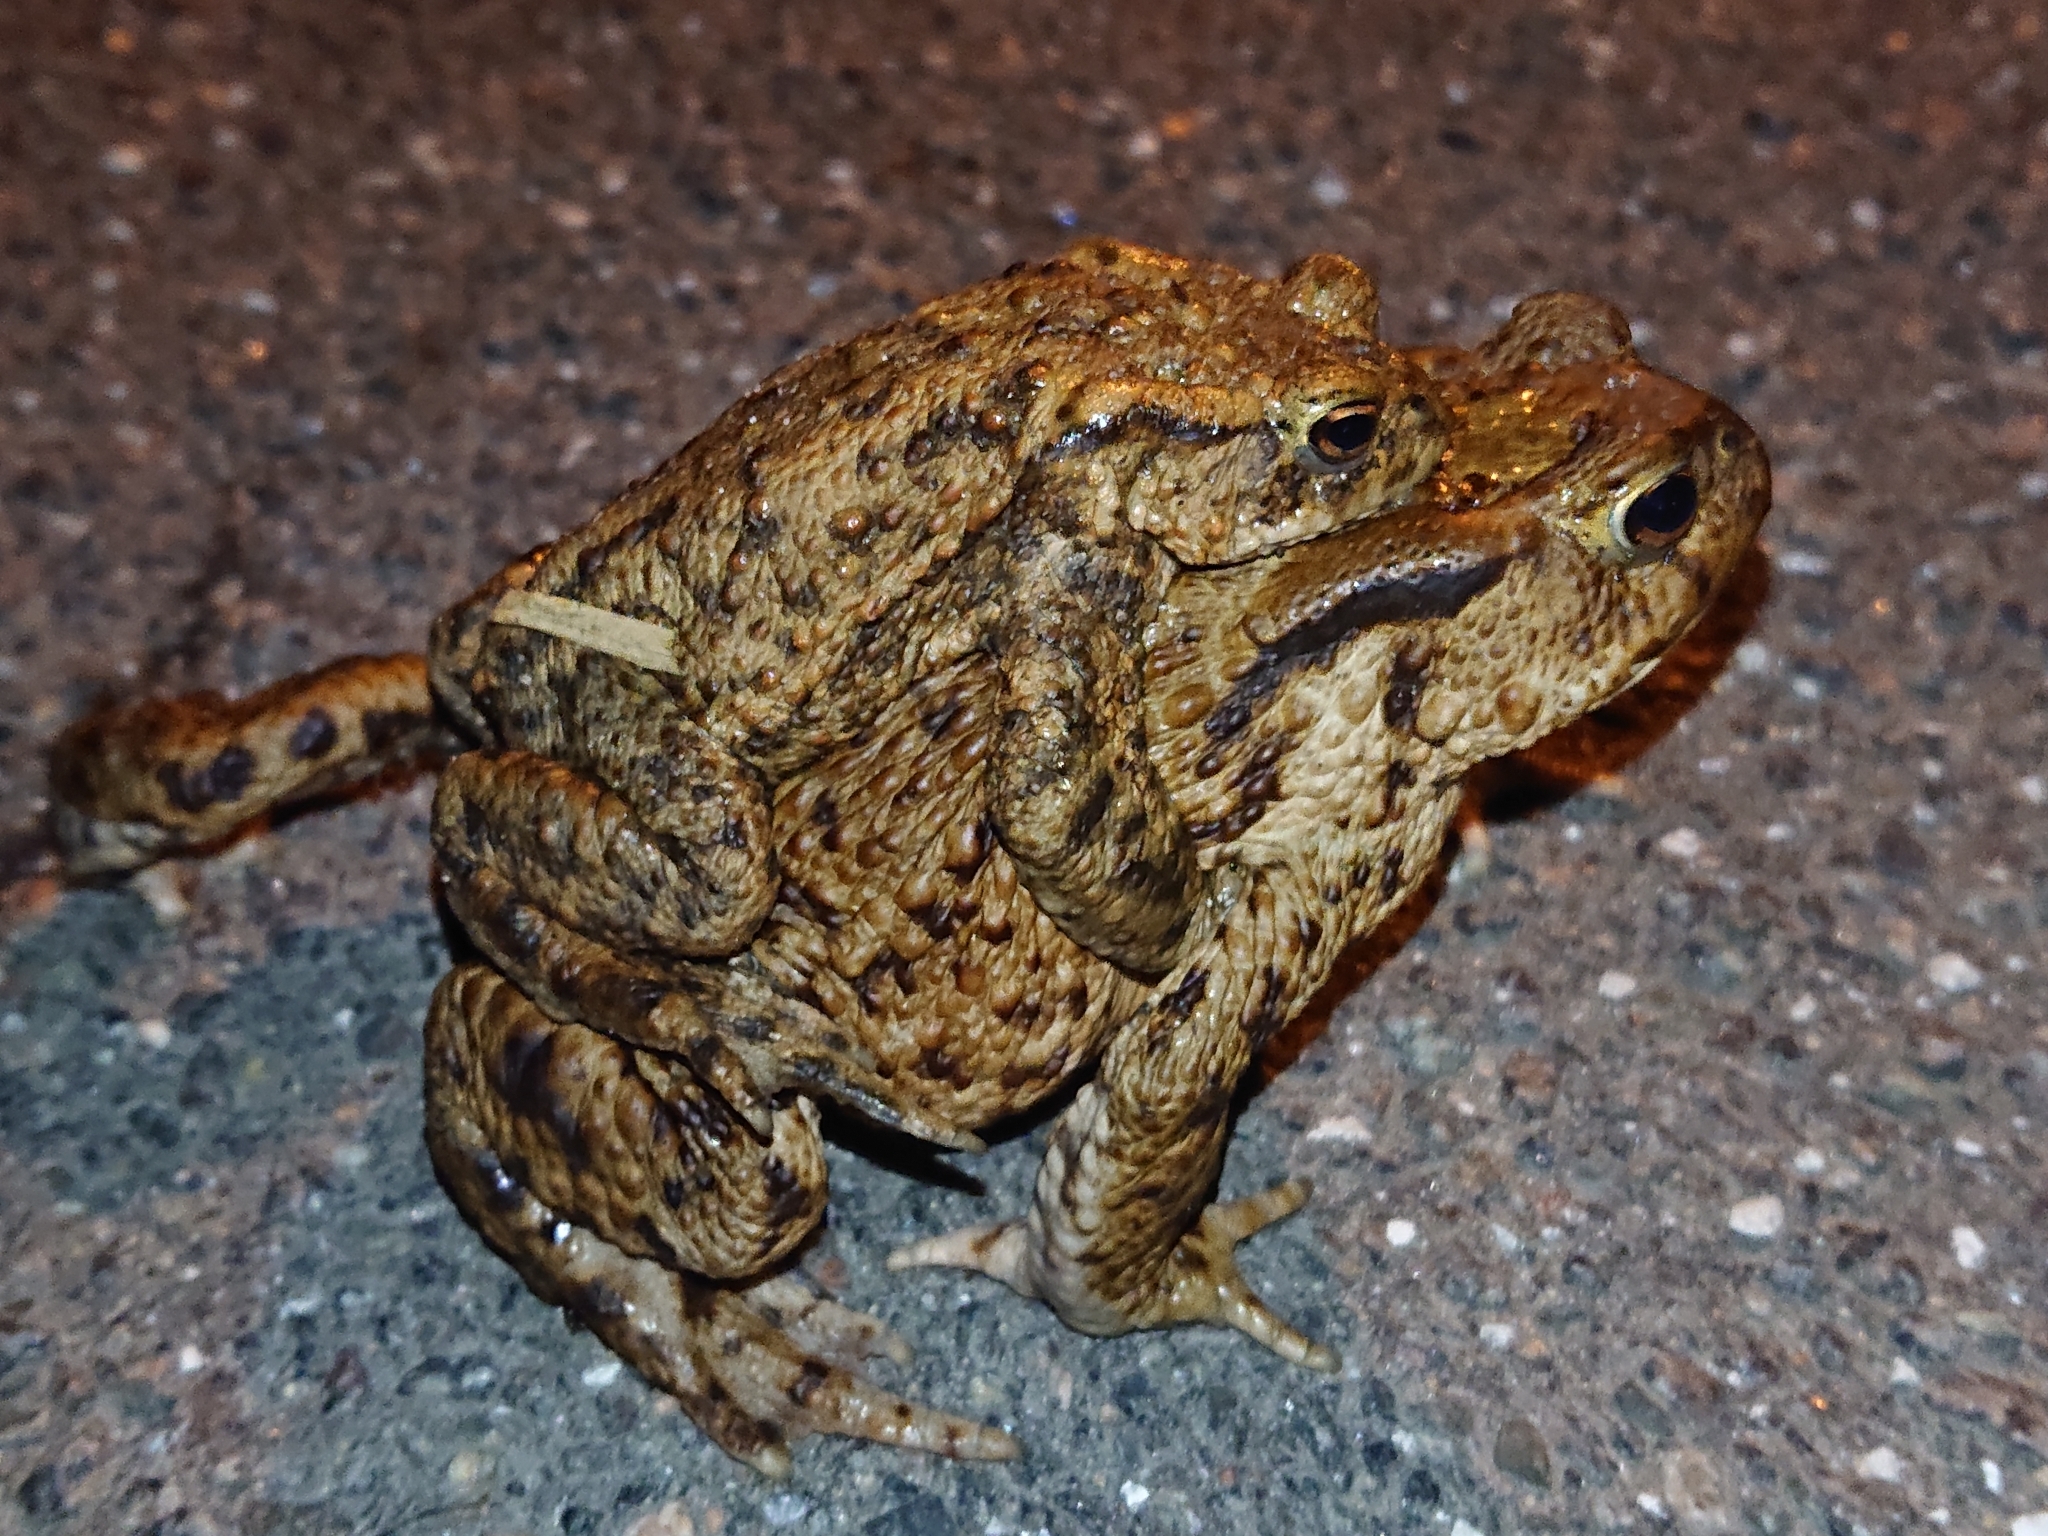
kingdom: Animalia
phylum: Chordata
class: Amphibia
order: Anura
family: Bufonidae
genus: Bufo
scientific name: Bufo bufo
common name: Common toad
